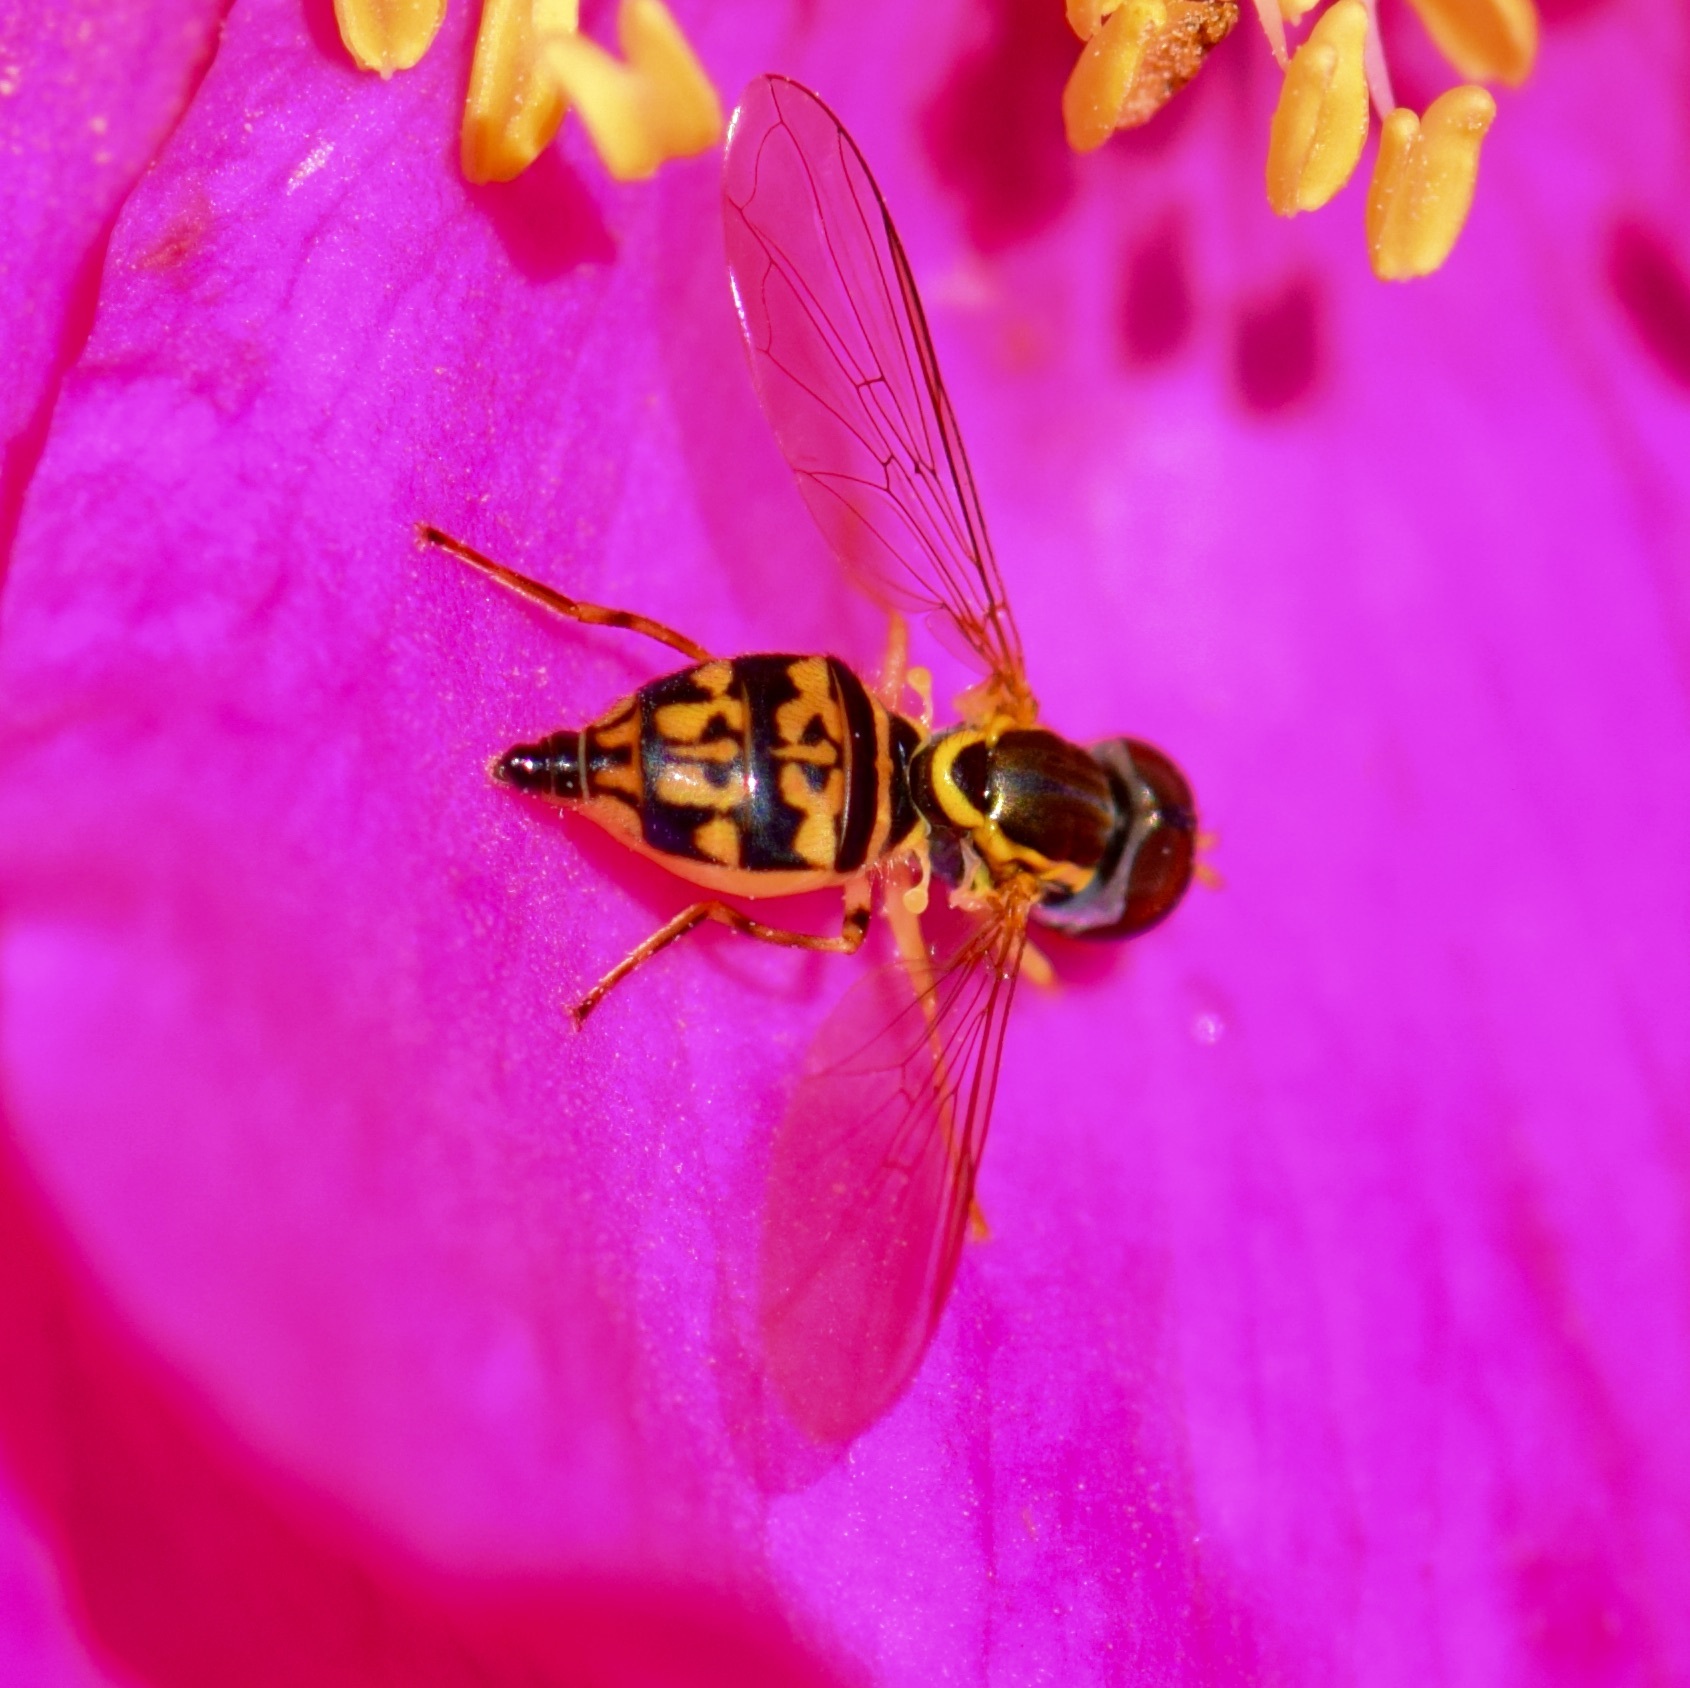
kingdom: Animalia
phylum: Arthropoda
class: Insecta
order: Diptera
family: Syrphidae
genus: Toxomerus
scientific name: Toxomerus geminatus
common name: Eastern calligrapher
